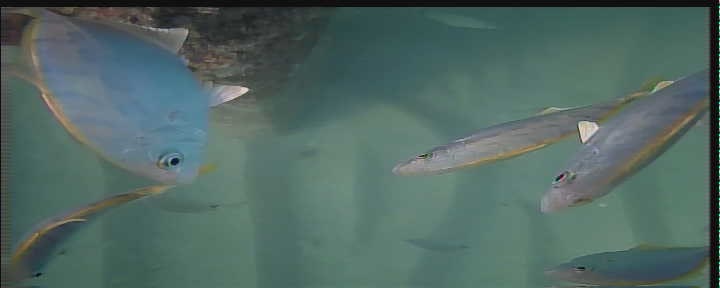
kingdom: Animalia
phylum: Chordata
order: Perciformes
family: Carangidae
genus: Carangoides
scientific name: Carangoides bartholomaei
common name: Yellow jack
